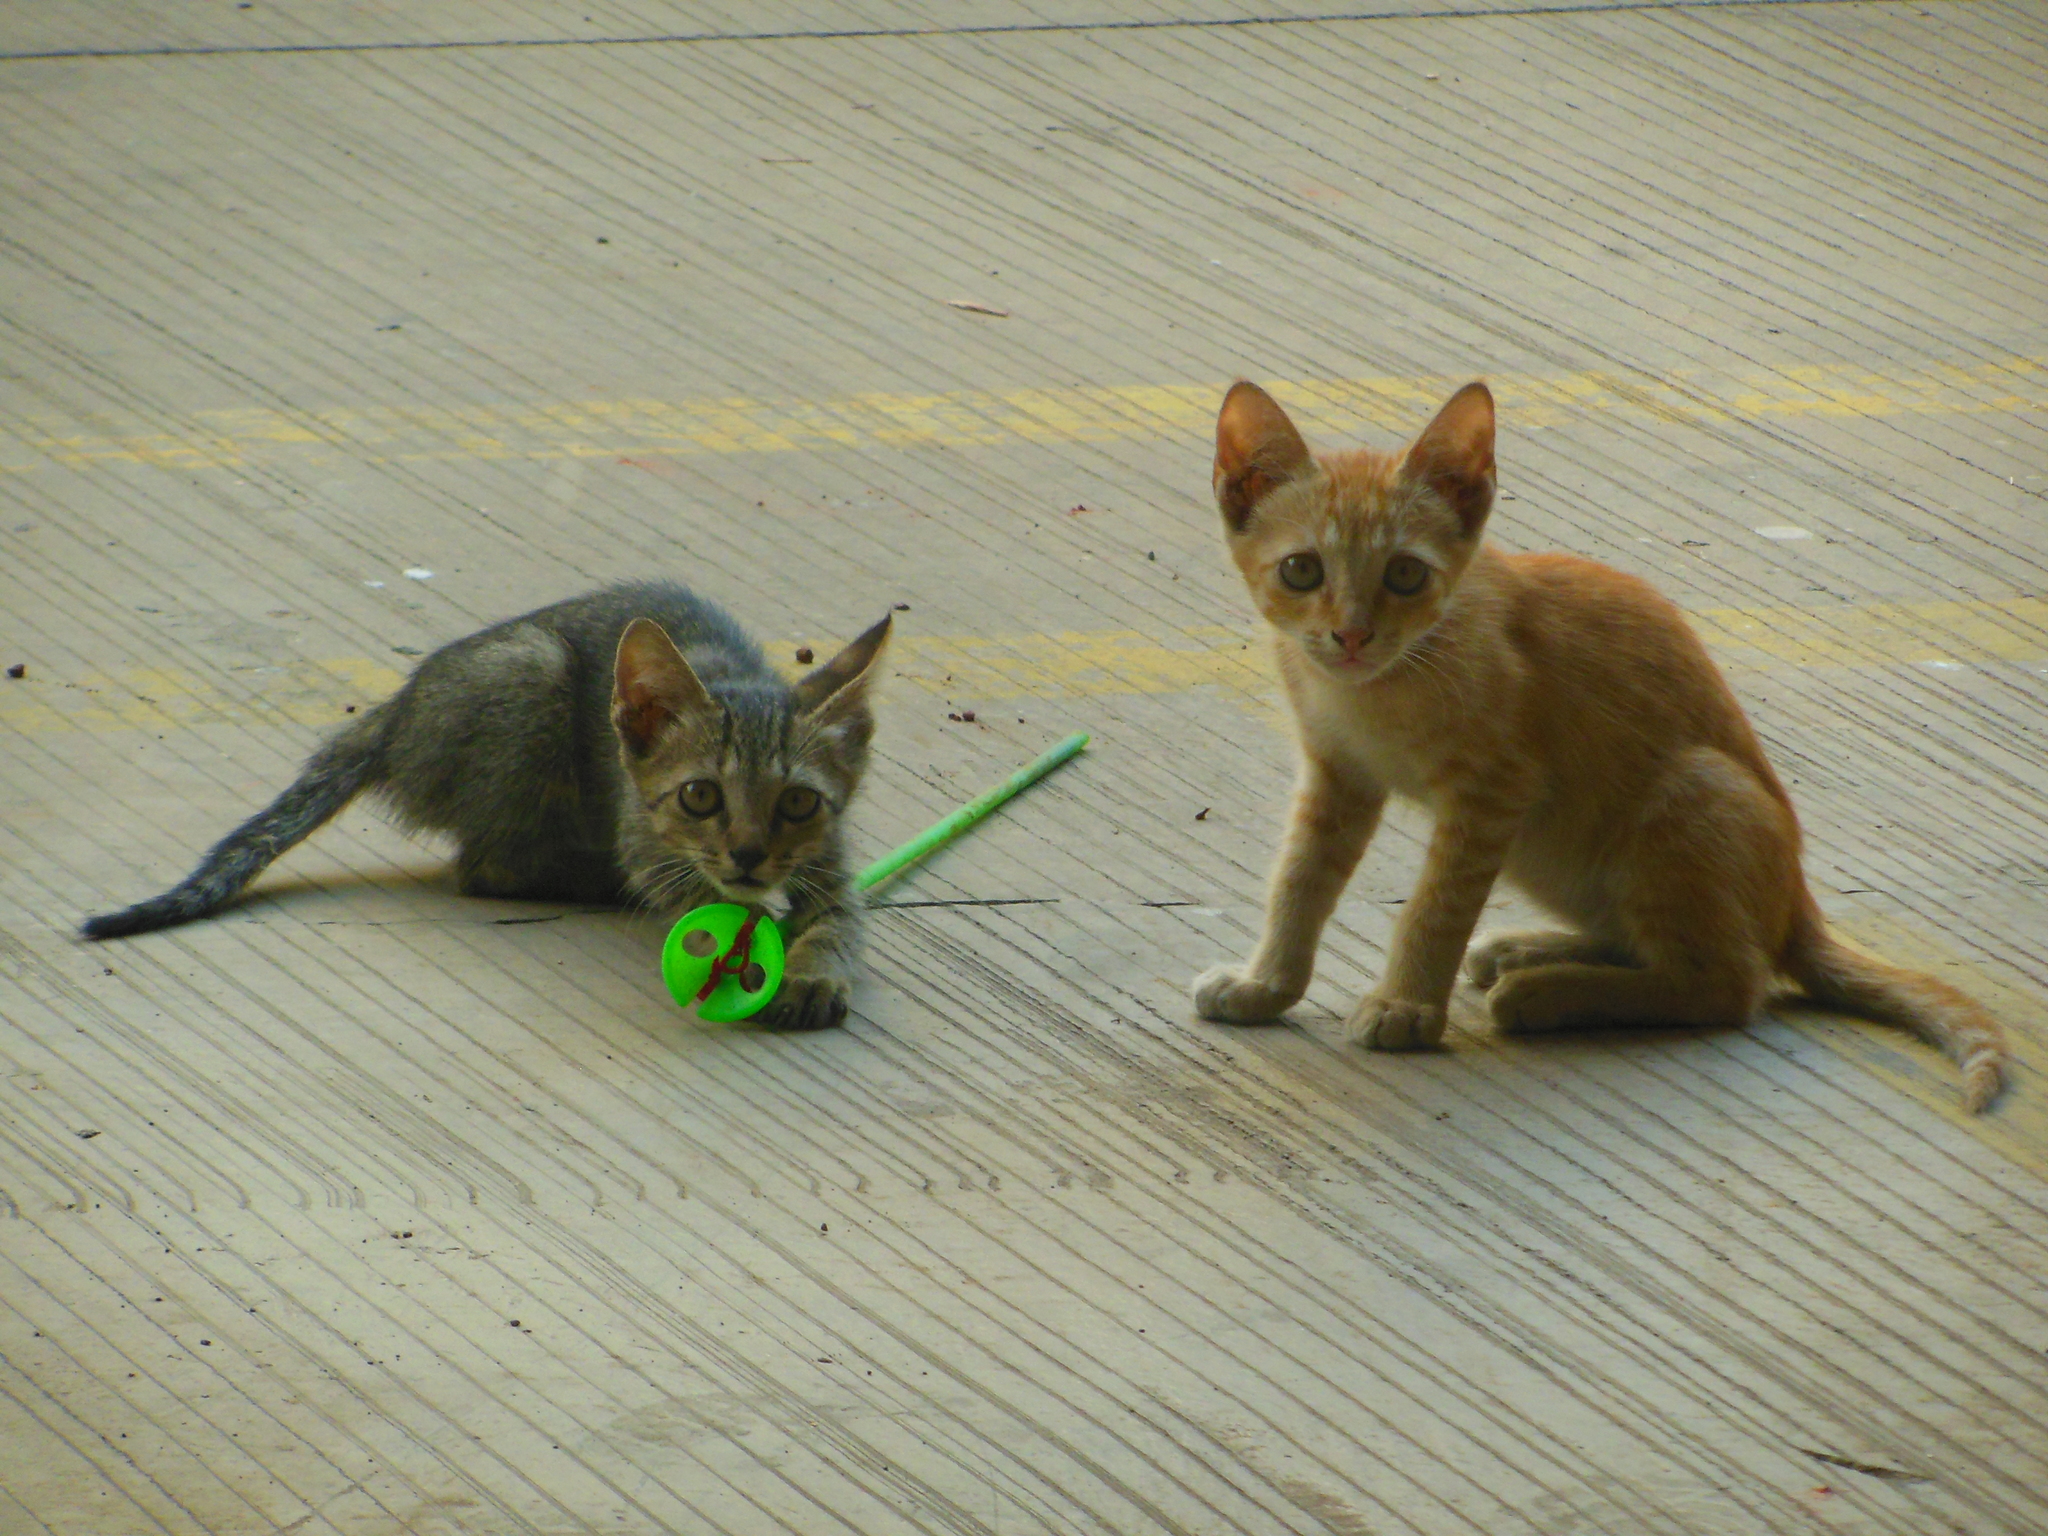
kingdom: Animalia
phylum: Chordata
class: Mammalia
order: Carnivora
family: Felidae
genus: Felis
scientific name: Felis catus
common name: Domestic cat
